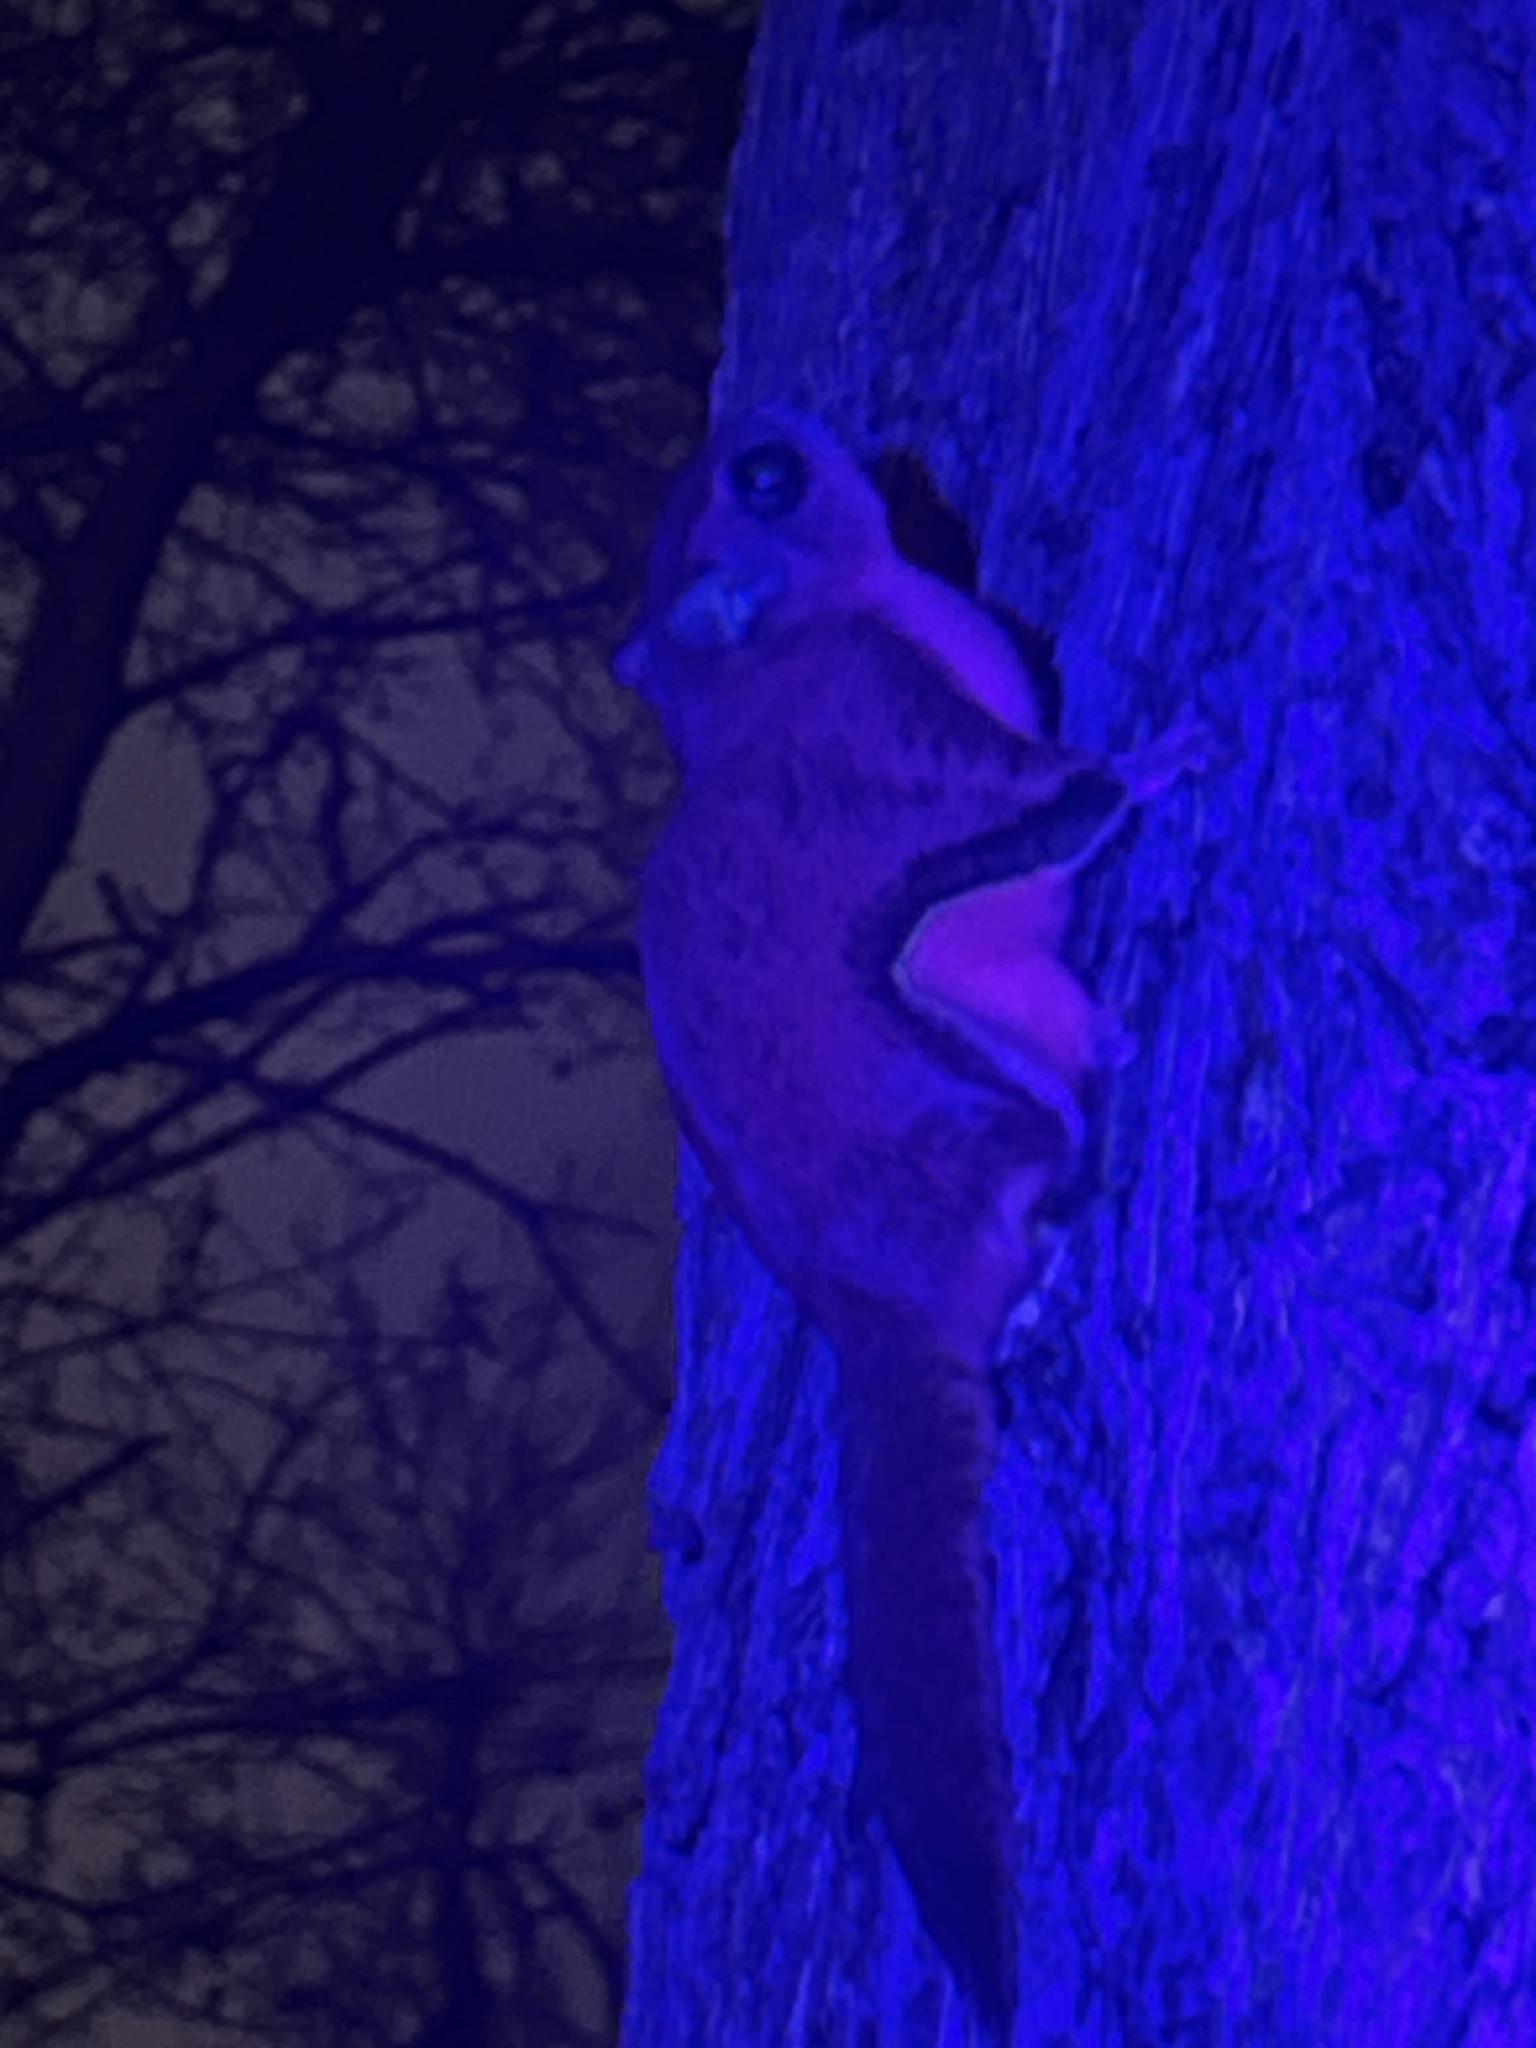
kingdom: Animalia
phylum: Chordata
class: Mammalia
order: Rodentia
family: Sciuridae
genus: Glaucomys
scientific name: Glaucomys volans
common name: Southern flying squirrel
